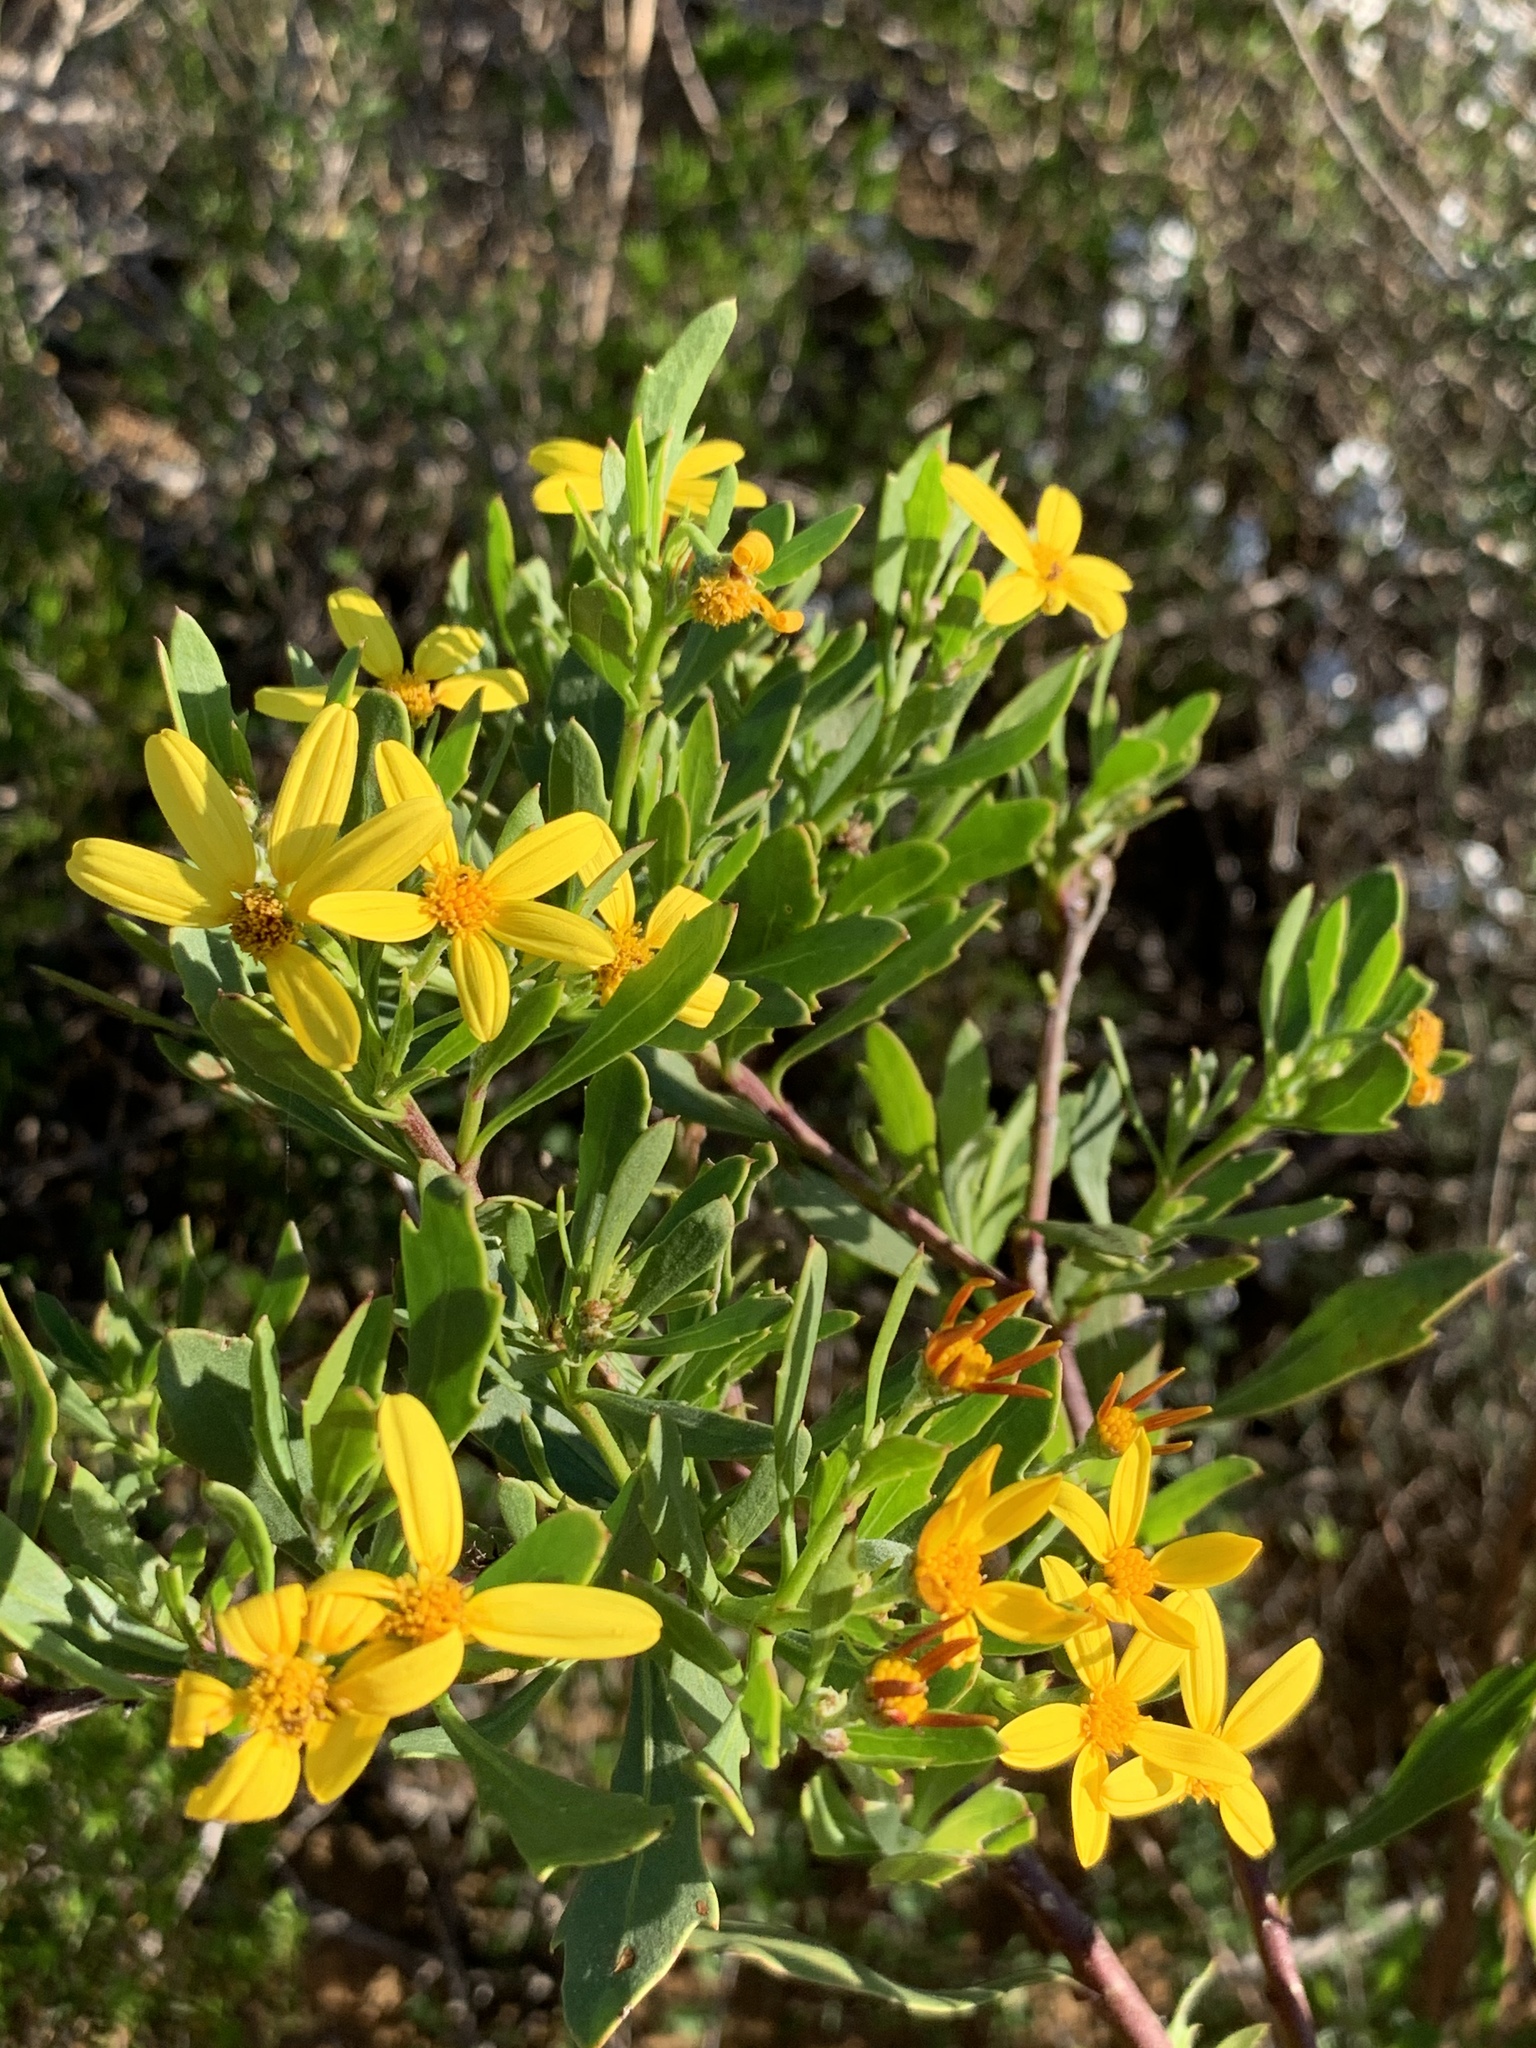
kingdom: Plantae
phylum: Tracheophyta
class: Magnoliopsida
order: Asterales
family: Asteraceae
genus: Osteospermum
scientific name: Osteospermum moniliferum
